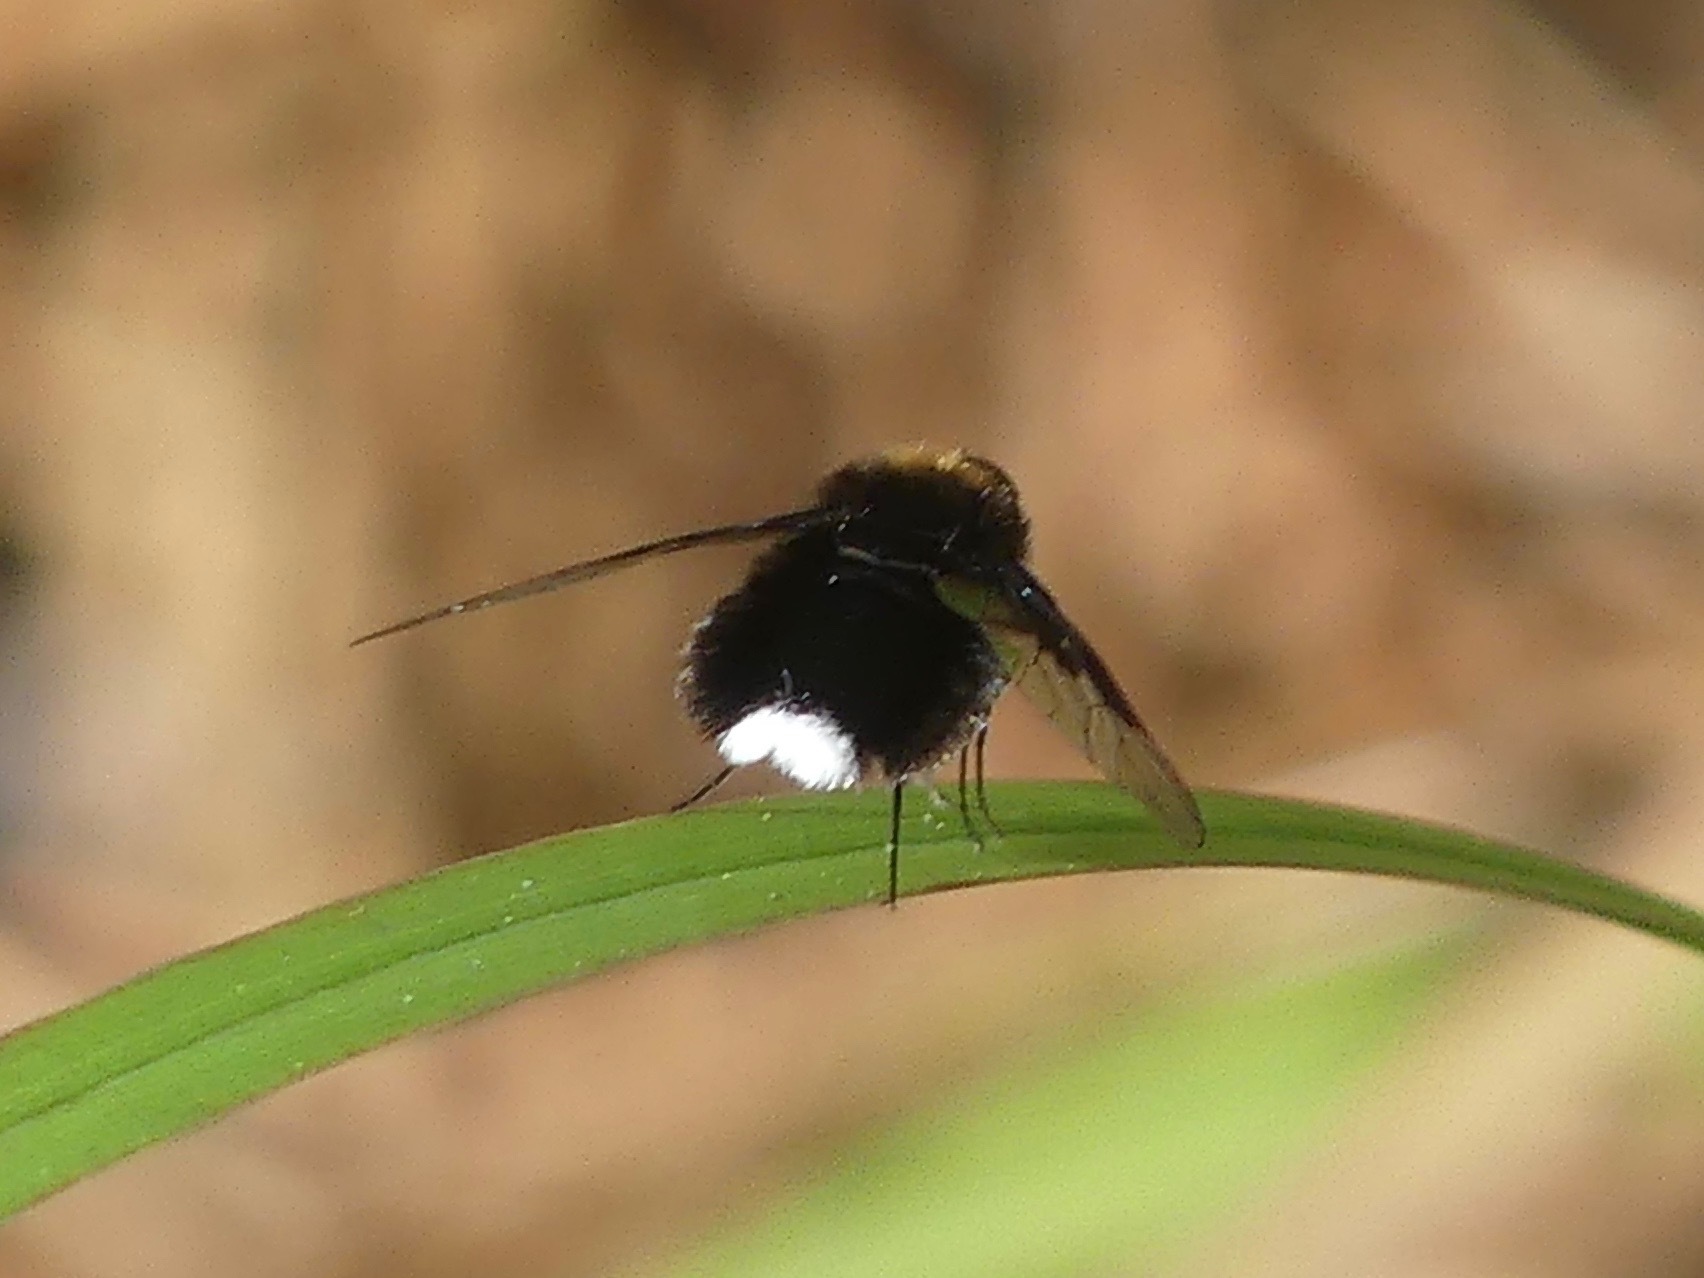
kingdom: Animalia
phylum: Arthropoda
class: Insecta
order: Diptera
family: Bombyliidae
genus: Ogcodocera
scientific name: Ogcodocera leucoprocta
